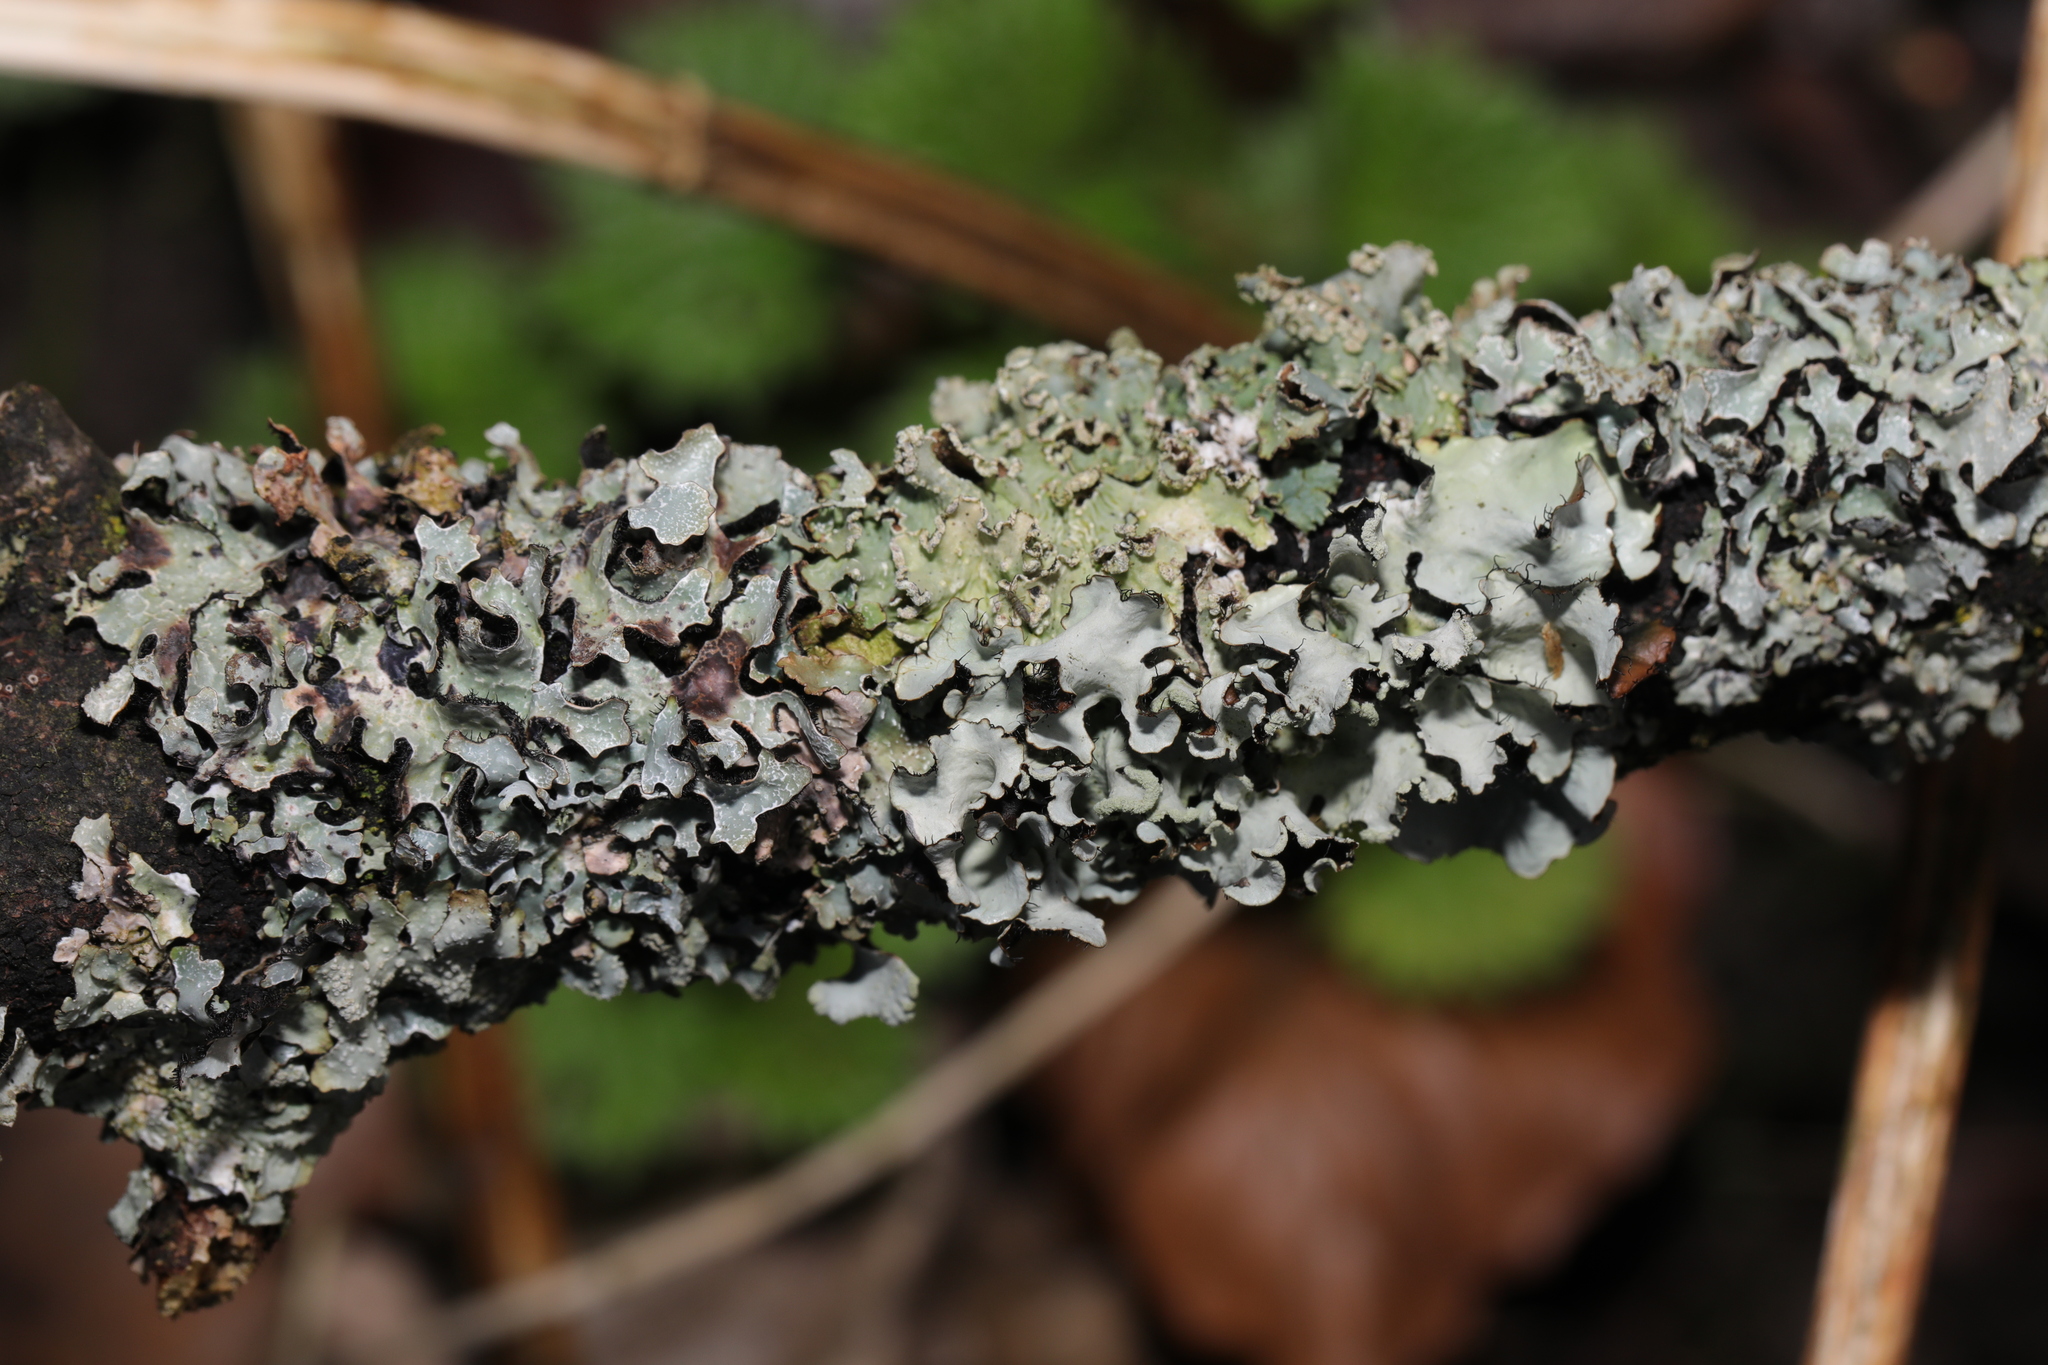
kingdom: Fungi
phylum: Ascomycota
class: Lecanoromycetes
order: Lecanorales
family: Parmeliaceae
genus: Parmelia
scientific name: Parmelia sulcata
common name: Netted shield lichen
